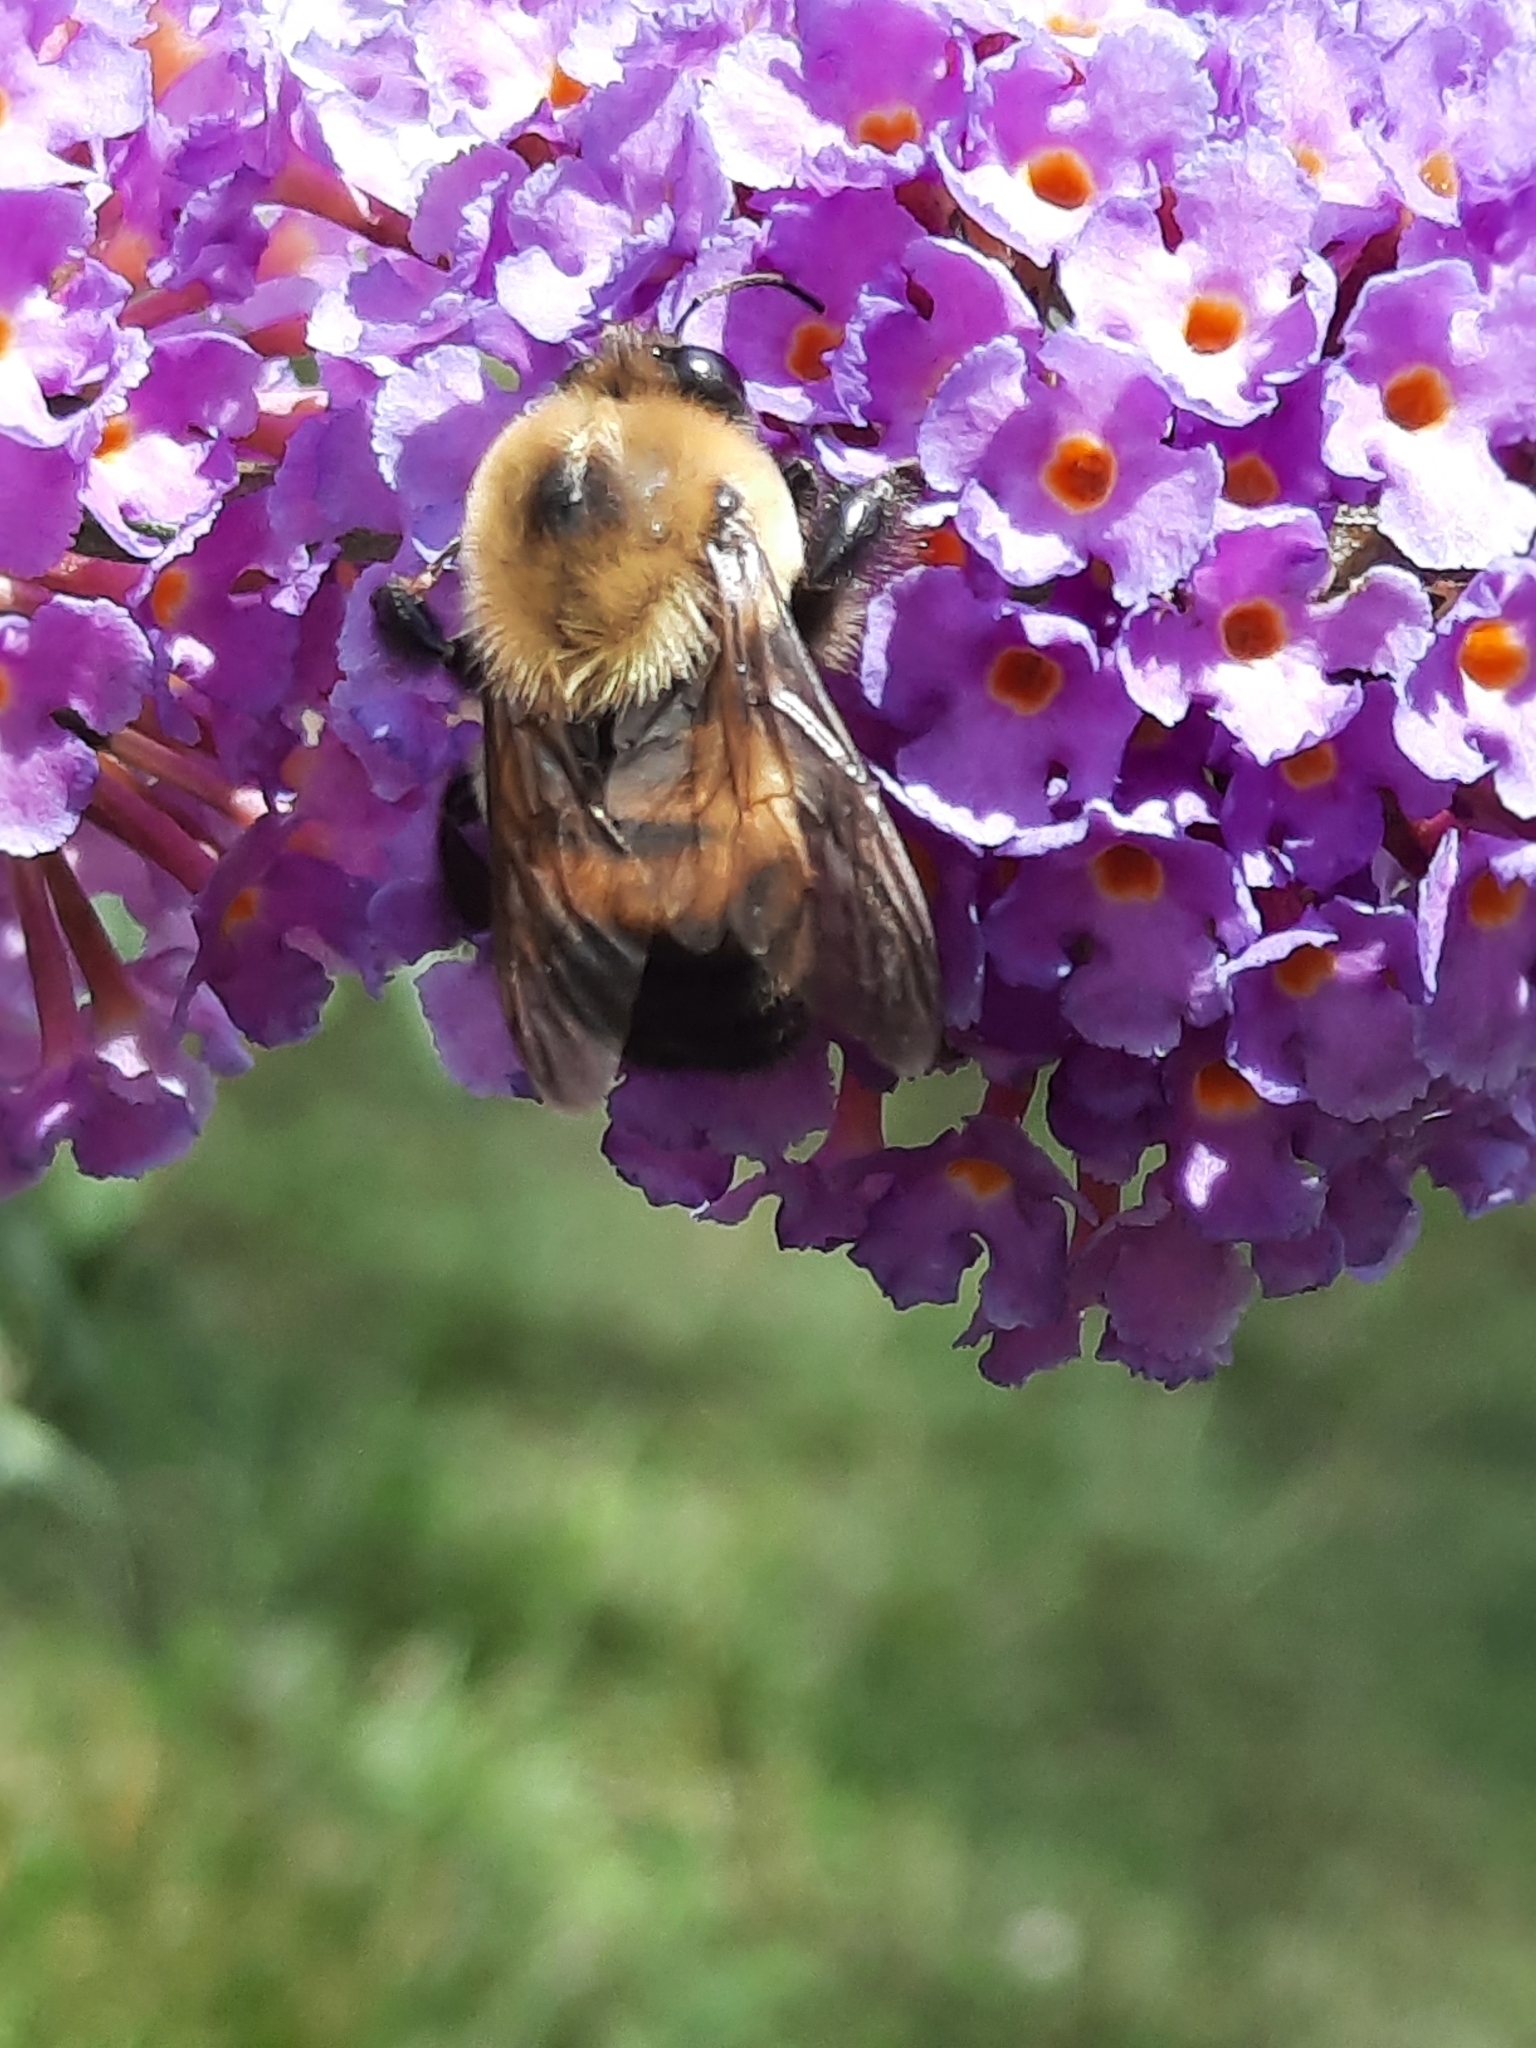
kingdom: Animalia
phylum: Arthropoda
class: Insecta
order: Hymenoptera
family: Apidae
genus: Bombus
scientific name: Bombus griseocollis
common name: Brown-belted bumble bee
